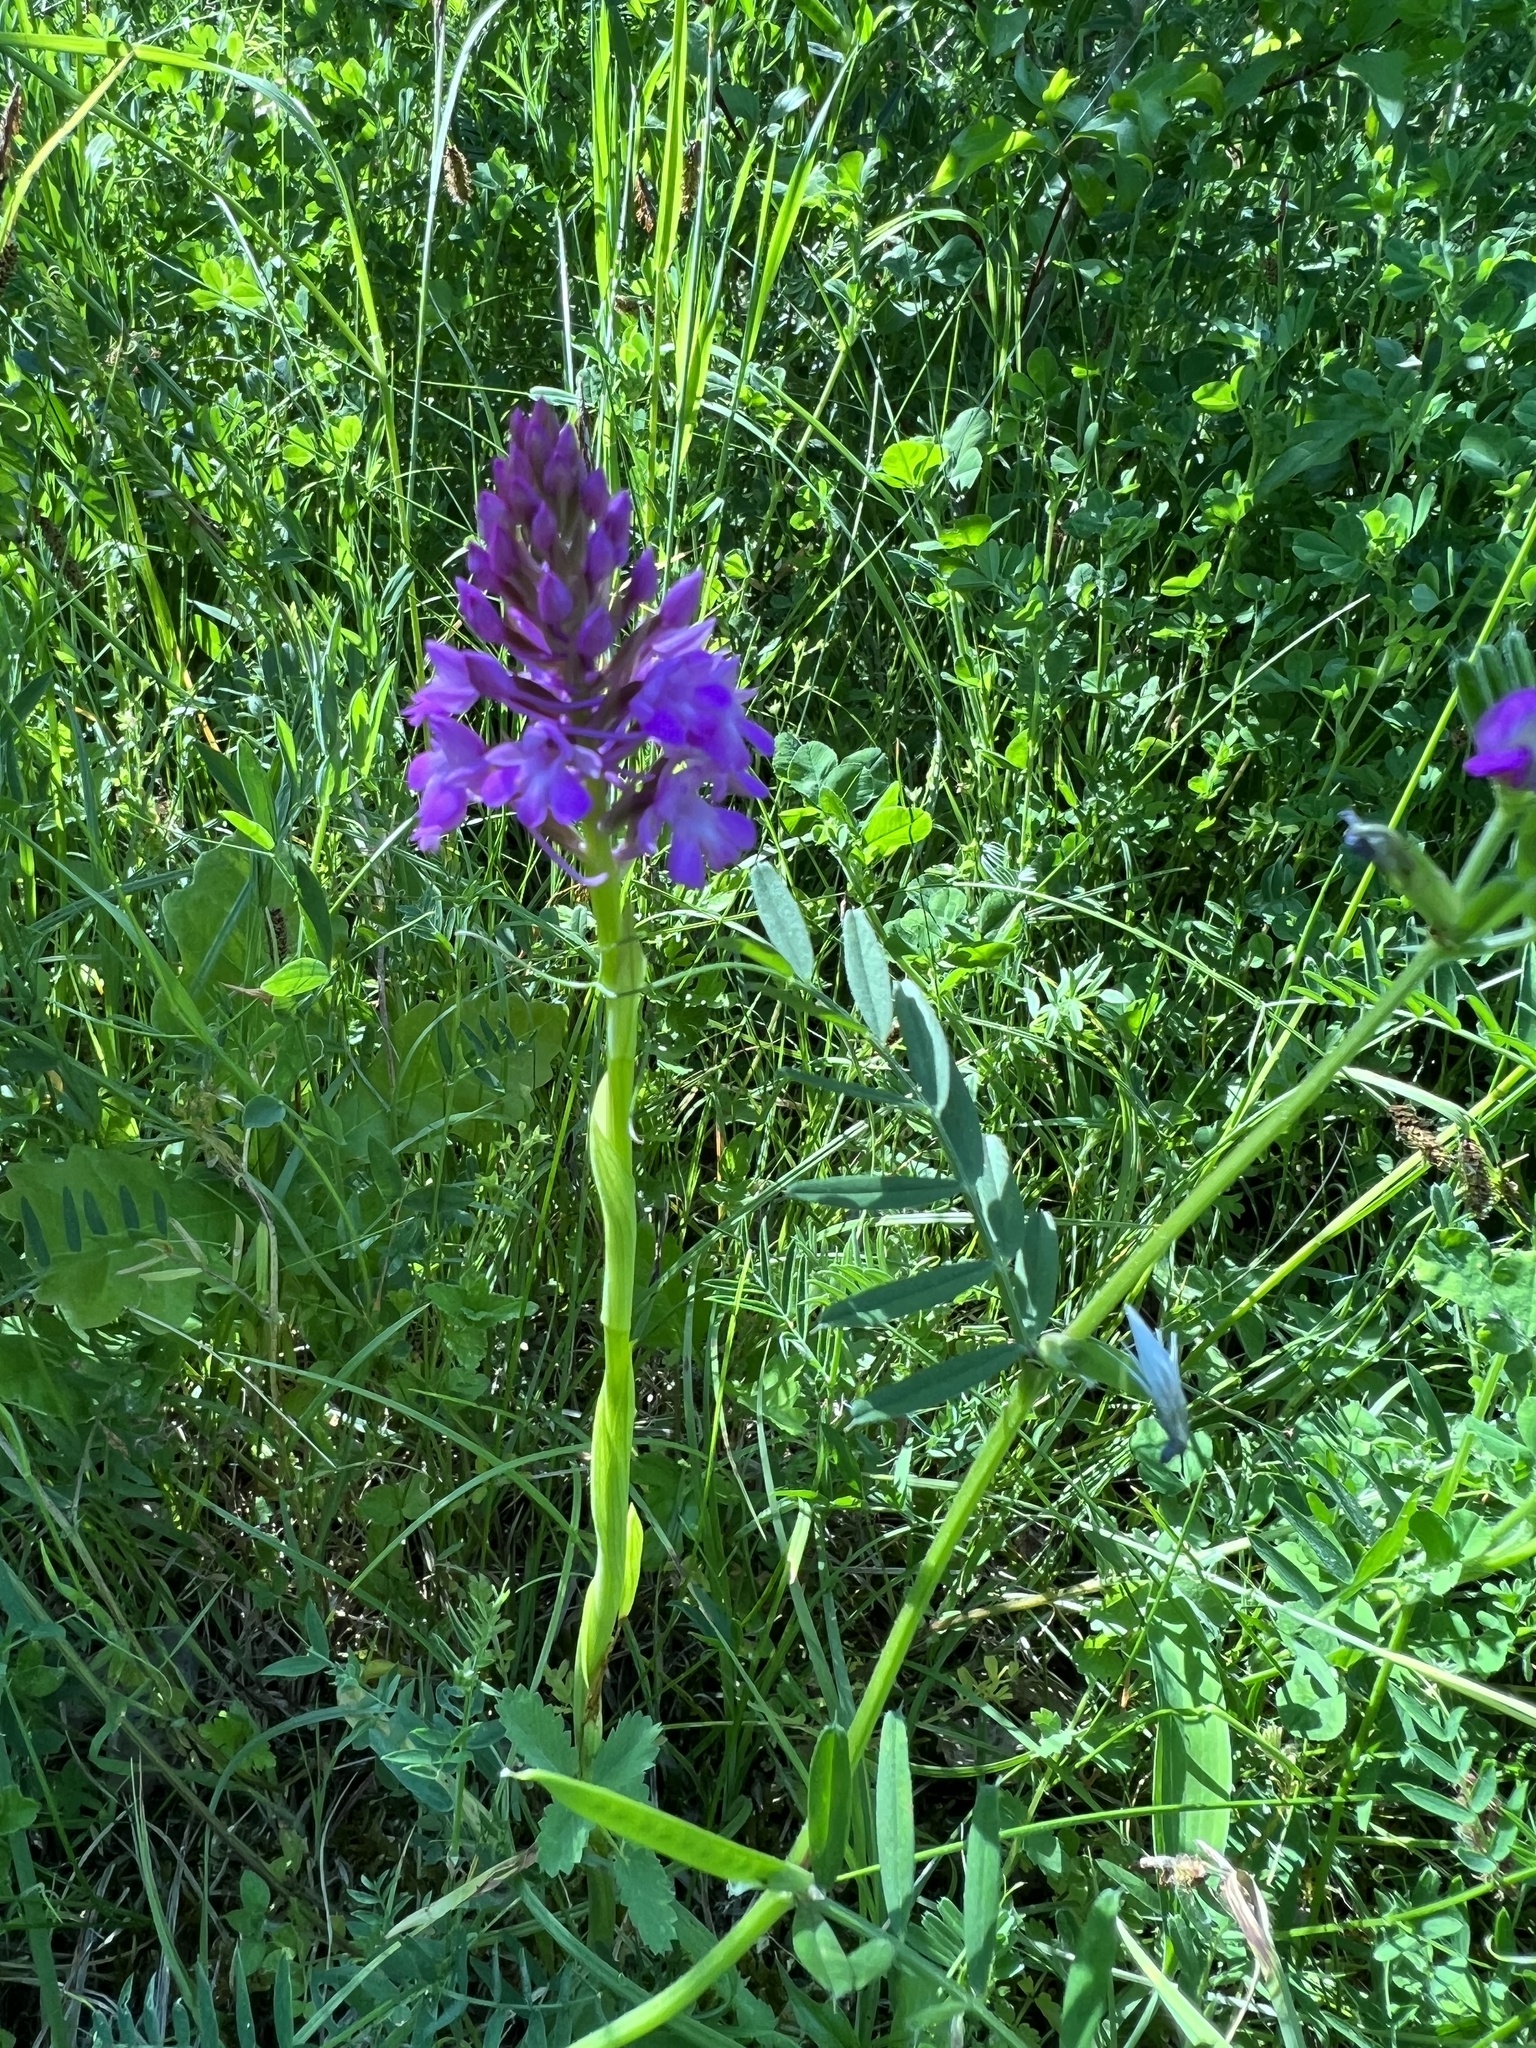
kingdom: Plantae
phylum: Tracheophyta
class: Liliopsida
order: Asparagales
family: Orchidaceae
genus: Anacamptis
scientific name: Anacamptis pyramidalis
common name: Pyramidal orchid
